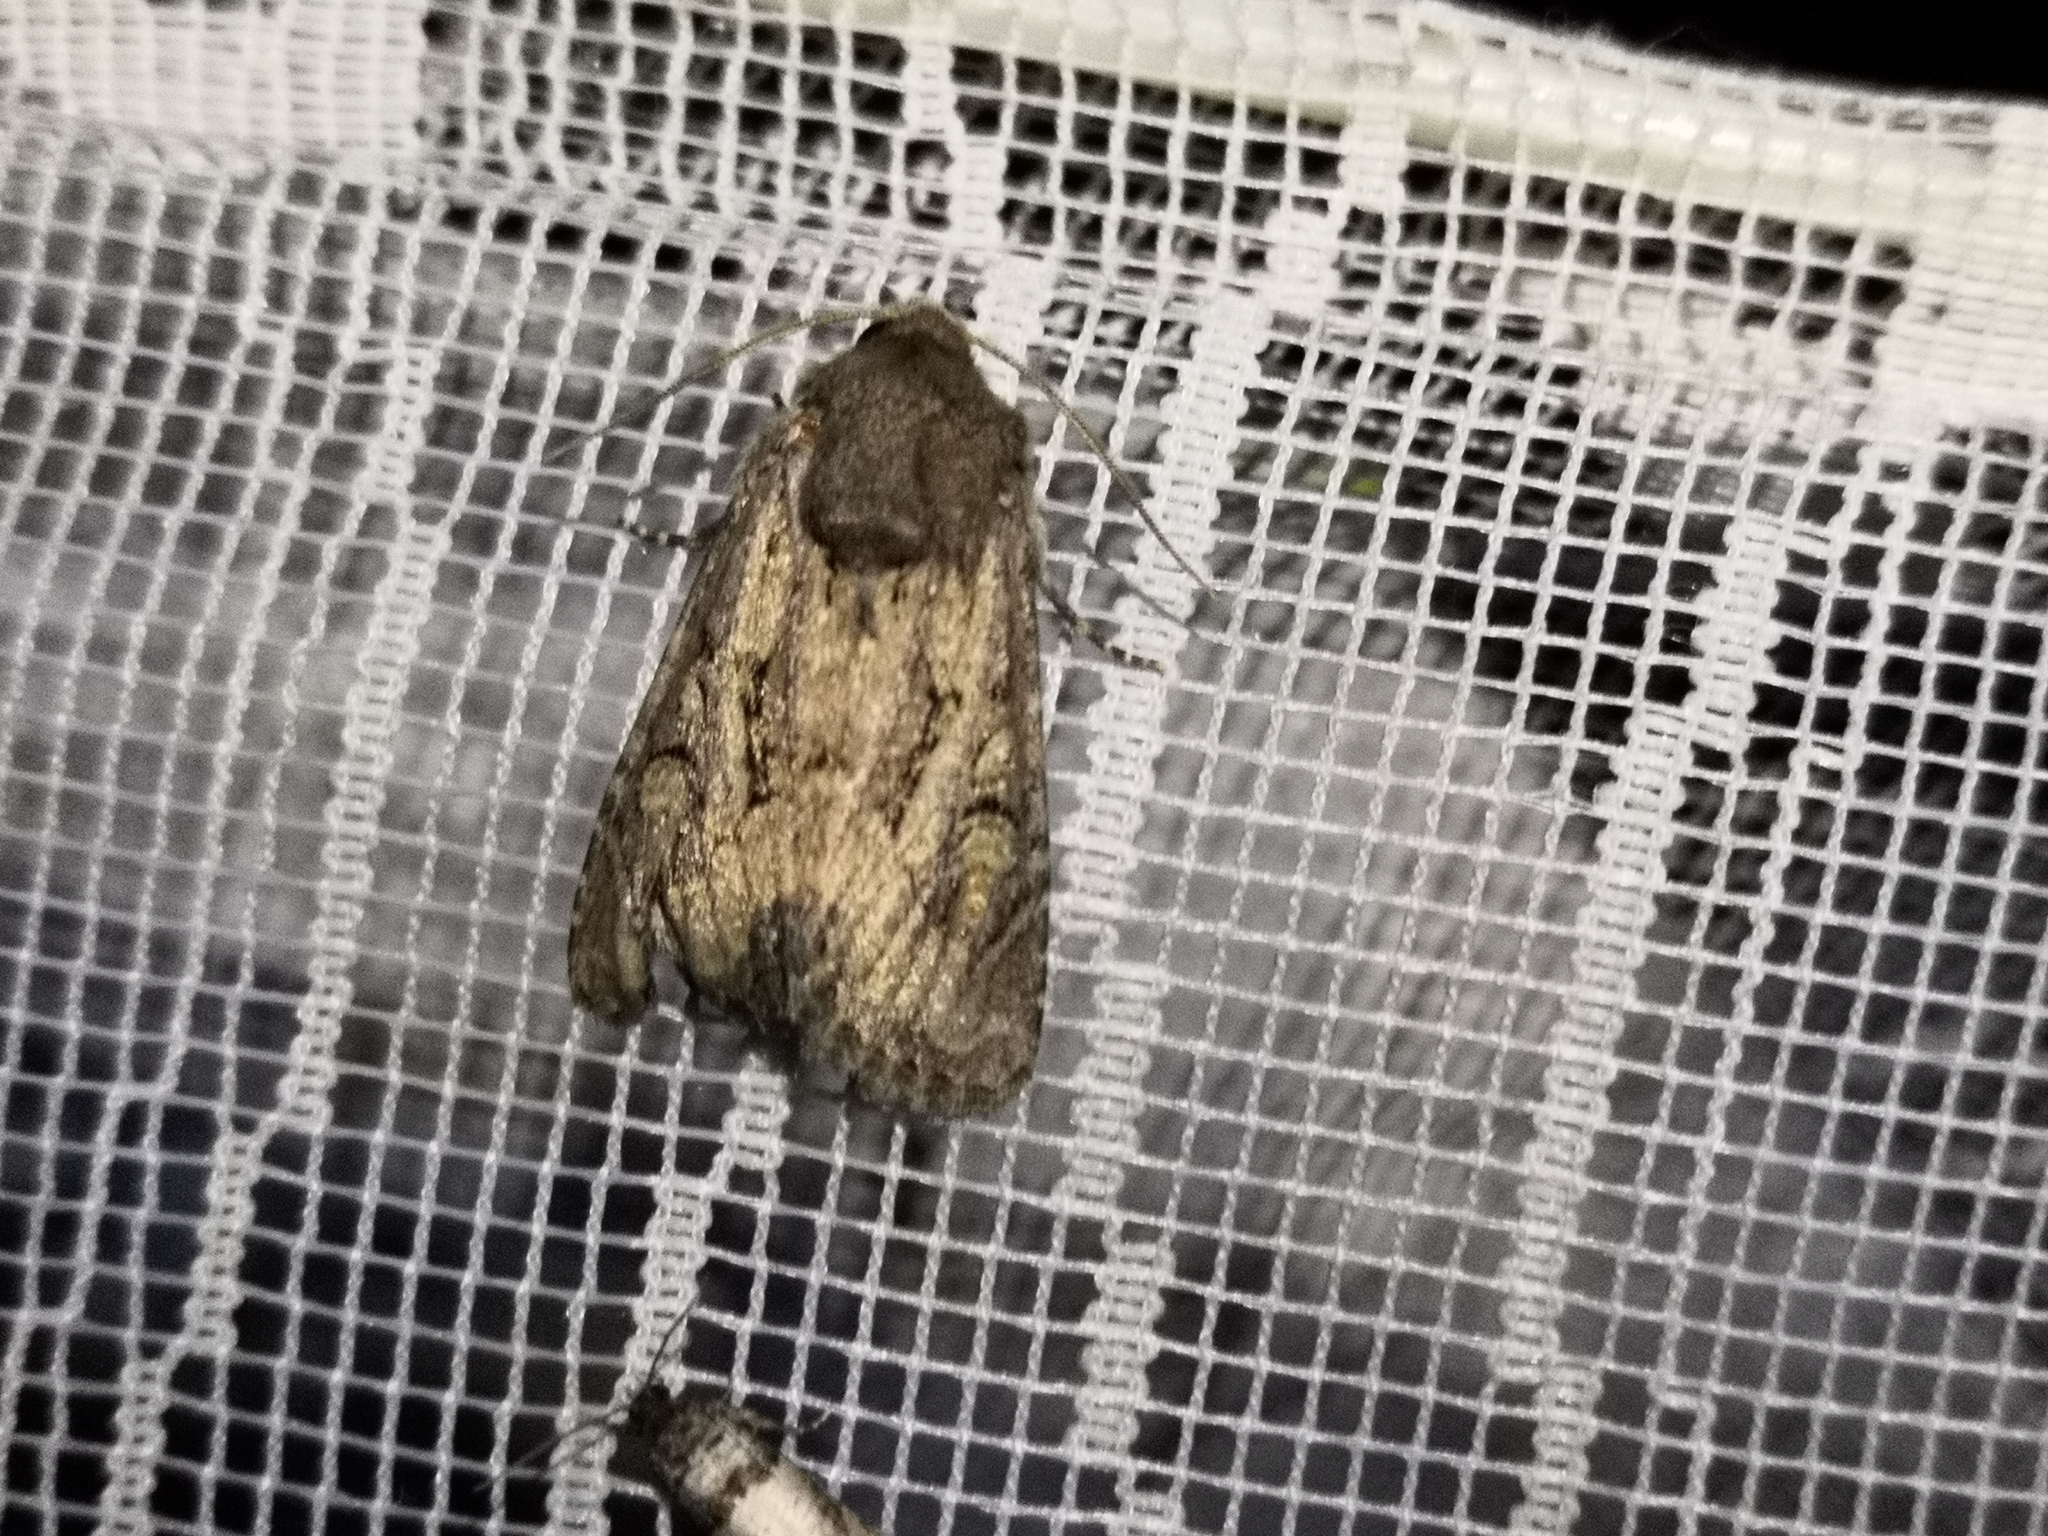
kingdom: Animalia
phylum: Arthropoda
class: Insecta
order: Lepidoptera
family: Noctuidae
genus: Luperina
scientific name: Luperina testacea
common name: Flounced rustic
